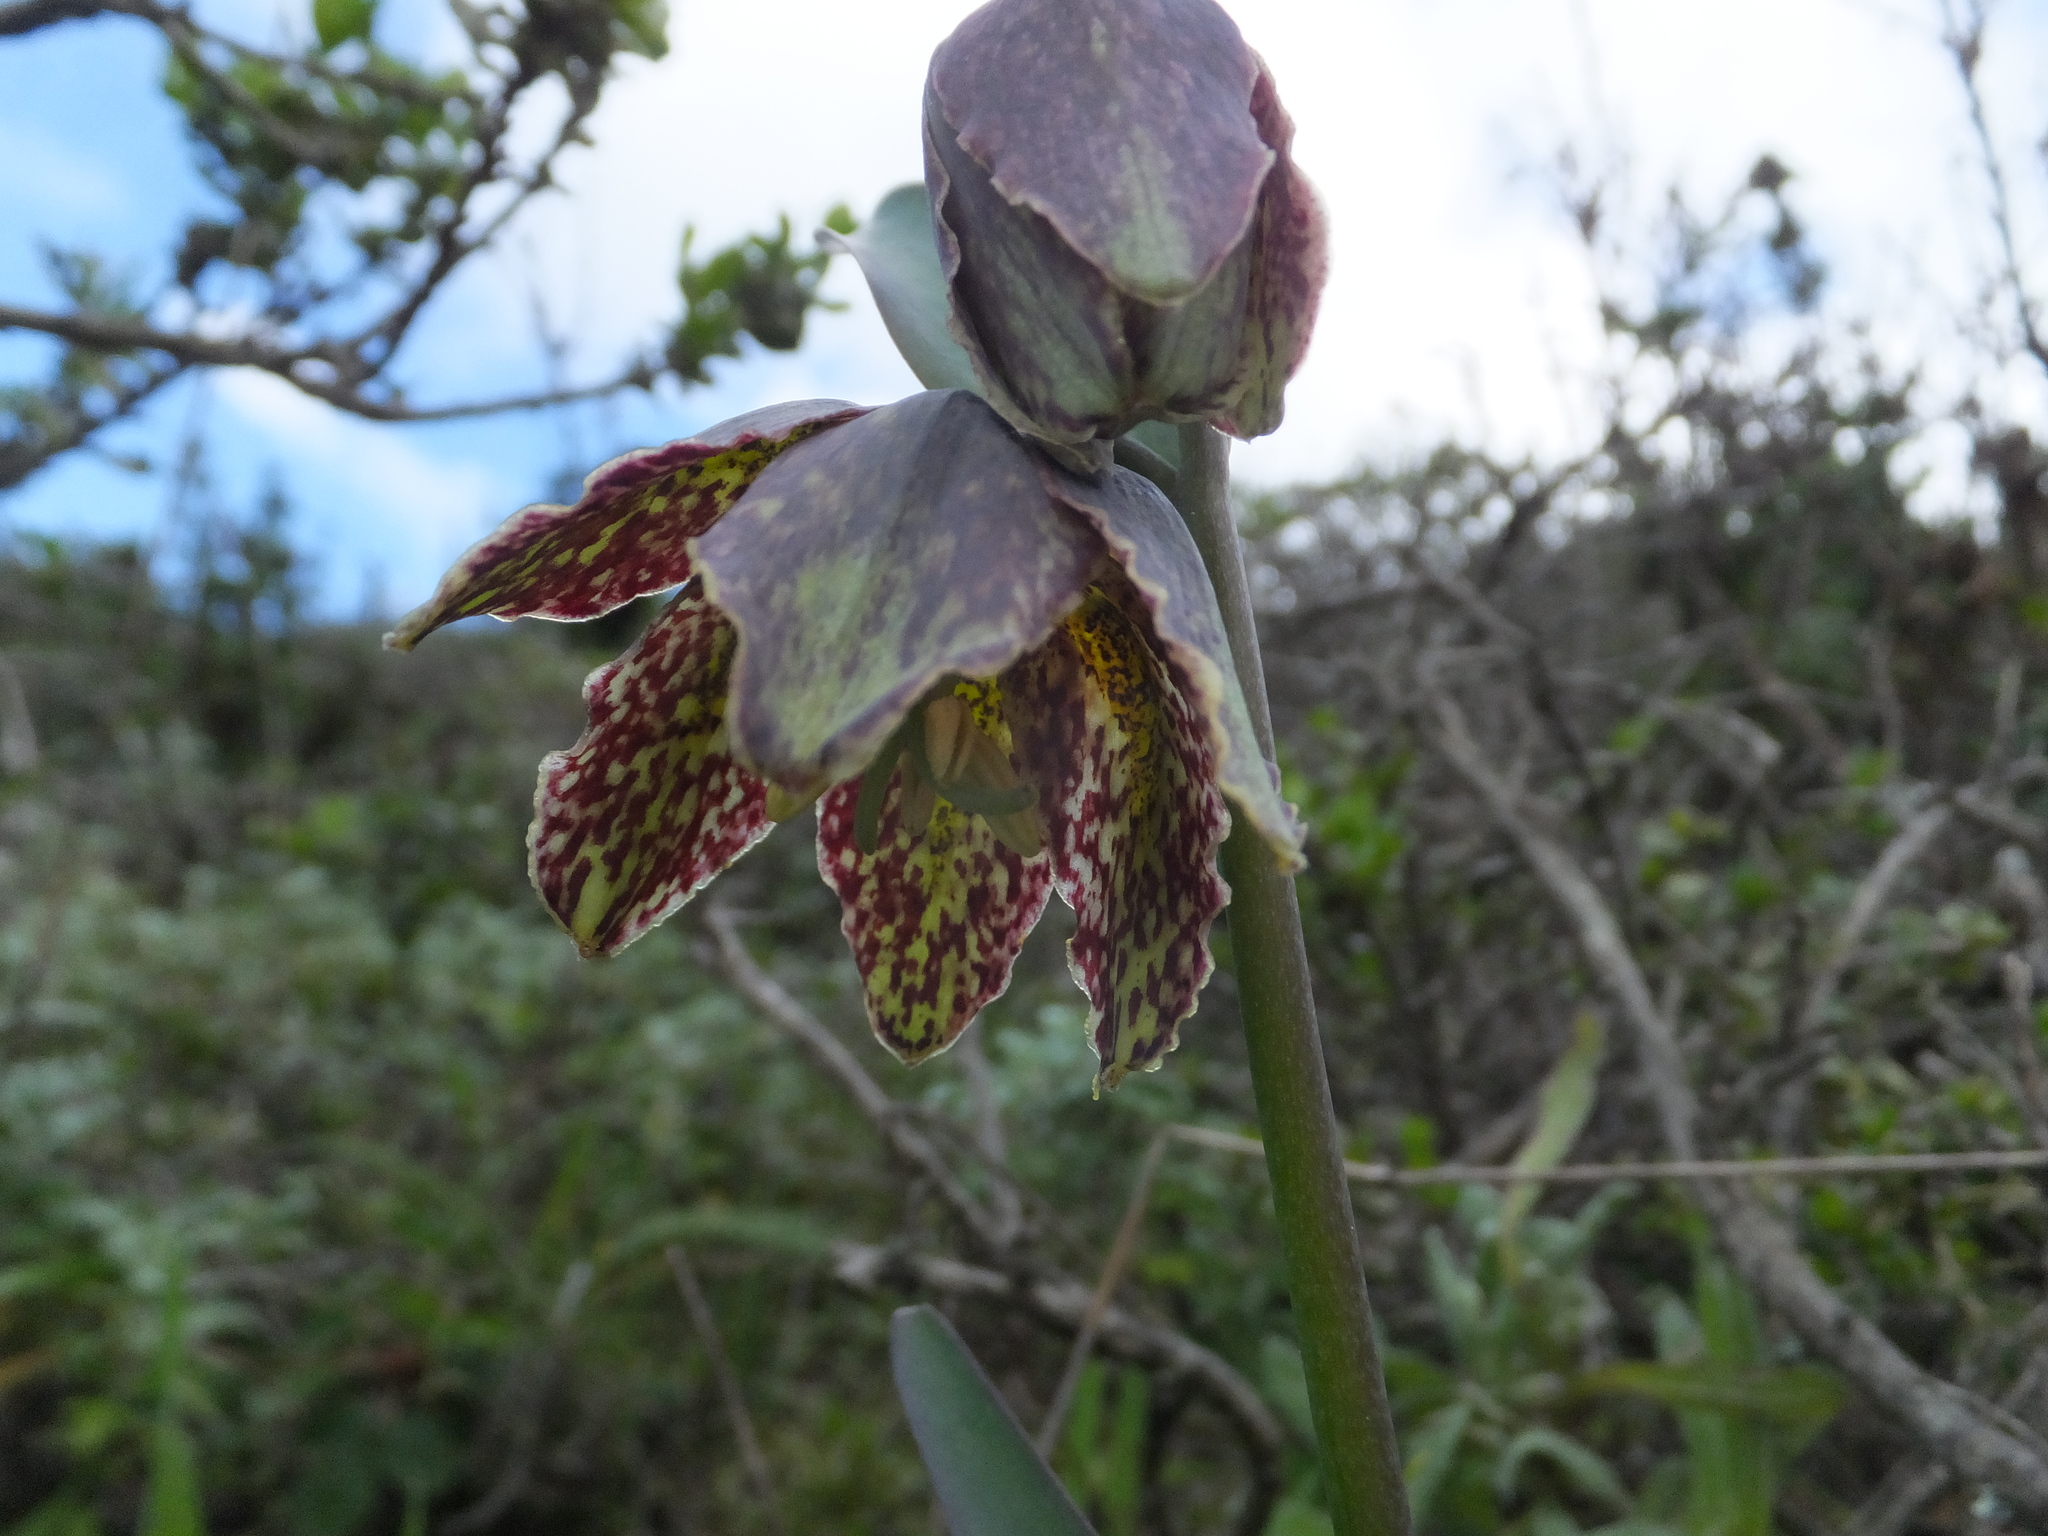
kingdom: Plantae
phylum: Tracheophyta
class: Liliopsida
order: Liliales
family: Liliaceae
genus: Fritillaria
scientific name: Fritillaria affinis
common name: Ojai fritillary
